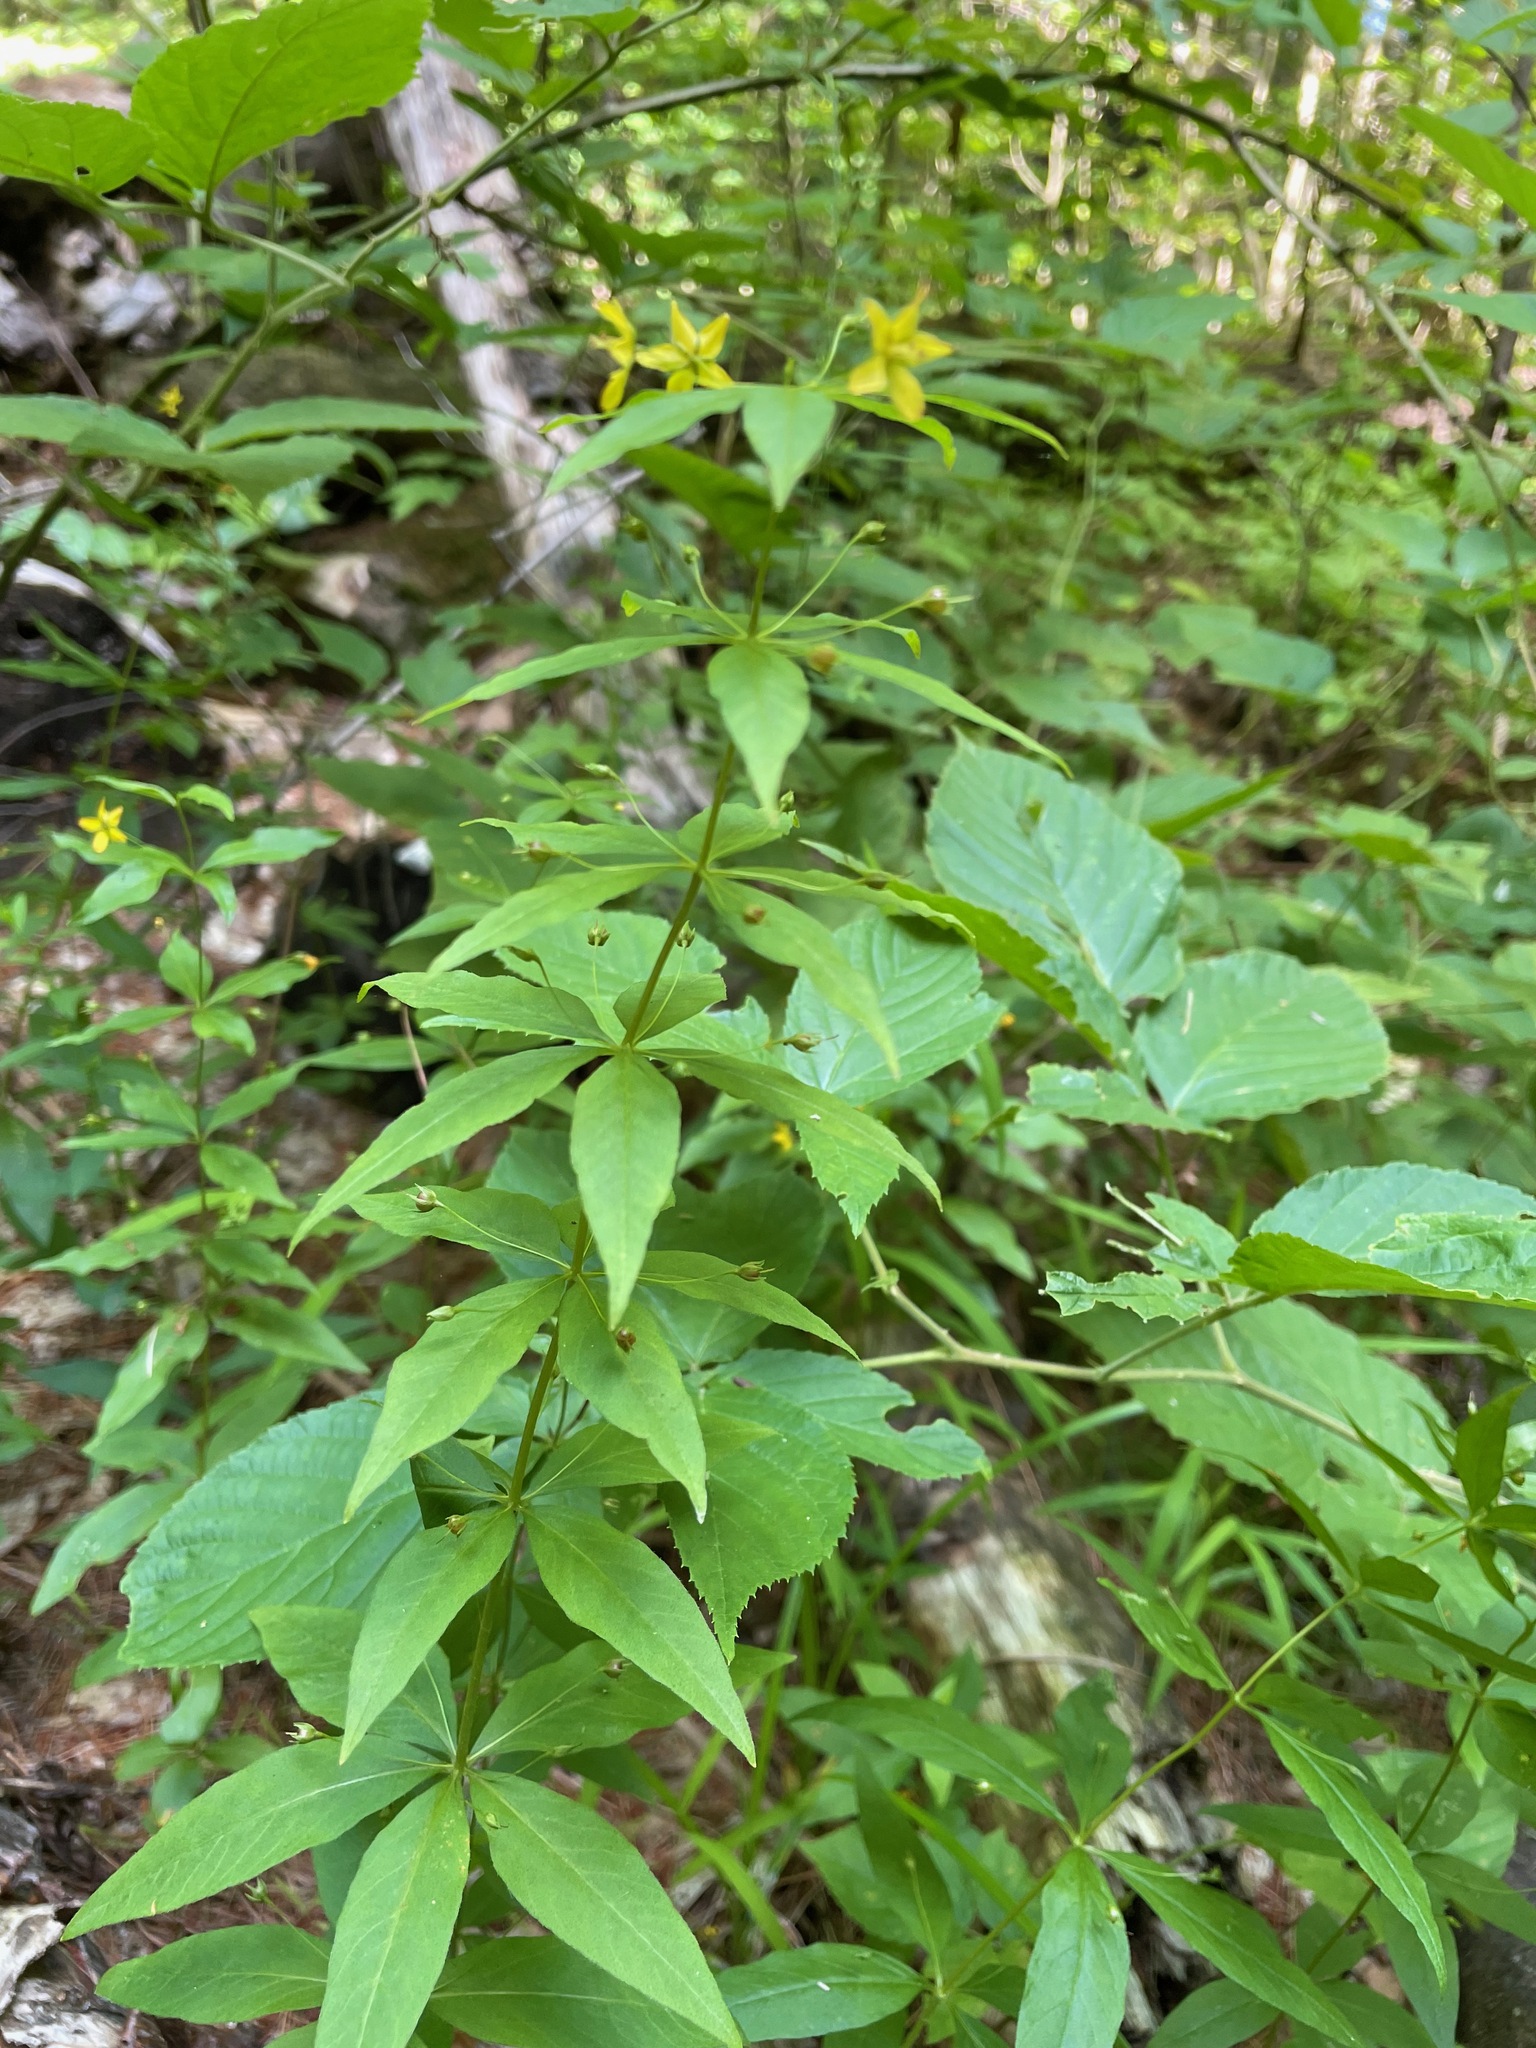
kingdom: Plantae
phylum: Tracheophyta
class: Magnoliopsida
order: Ericales
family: Primulaceae
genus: Lysimachia
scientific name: Lysimachia quadrifolia
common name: Whorled loosestrife
